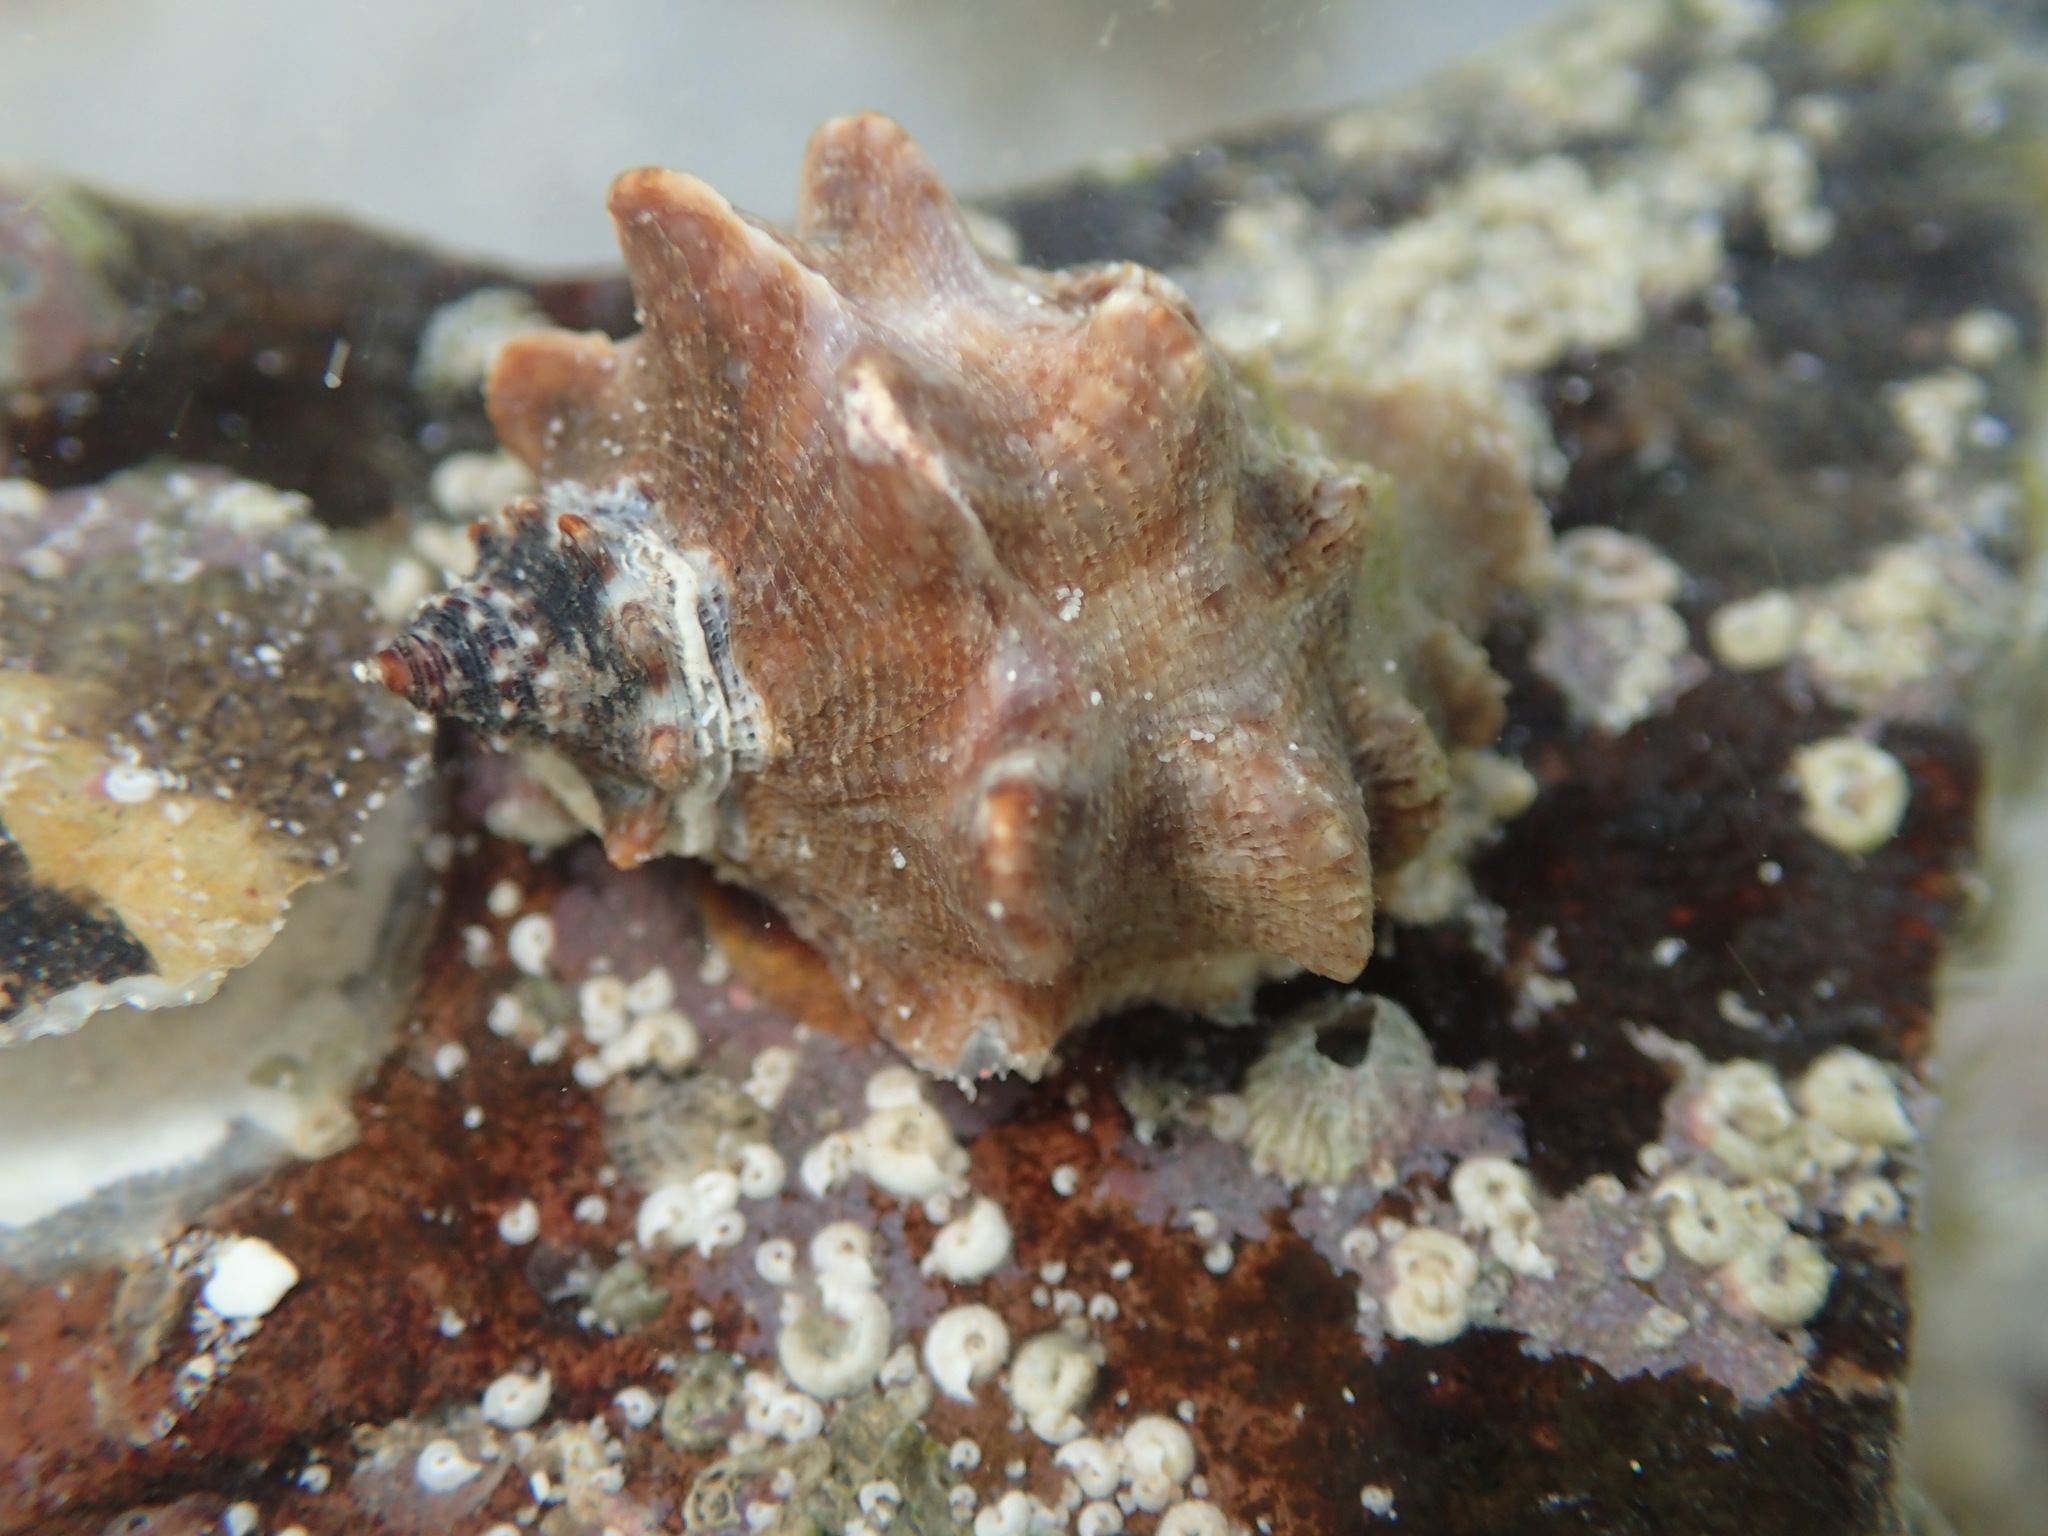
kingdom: Animalia
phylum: Mollusca
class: Gastropoda
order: Neogastropoda
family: Muricidae
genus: Neorapana
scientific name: Neorapana tuberculata
